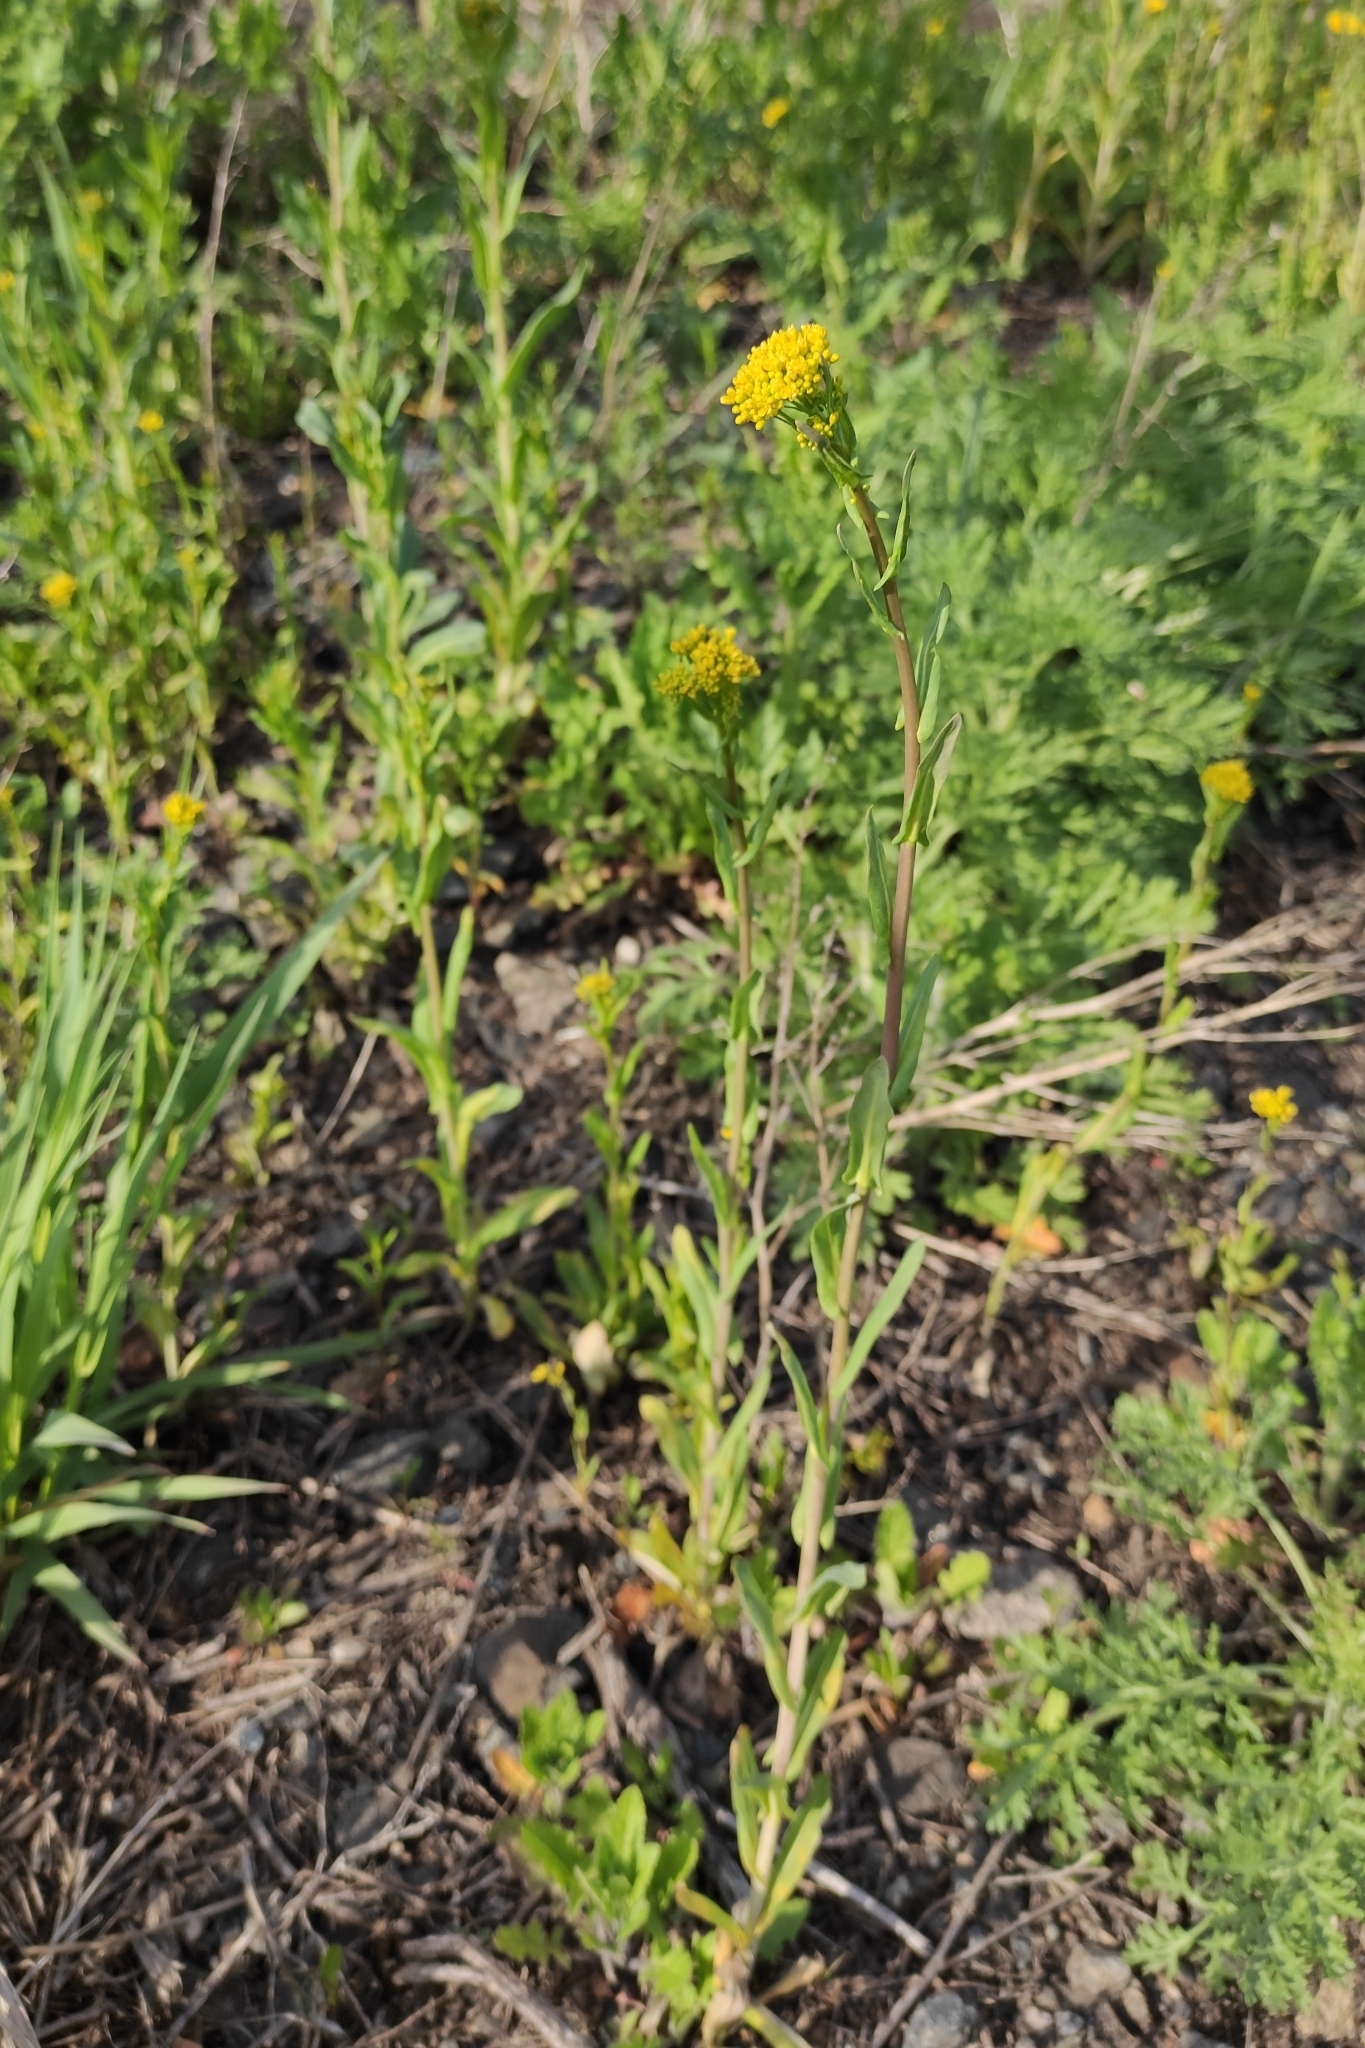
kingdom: Plantae
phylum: Tracheophyta
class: Magnoliopsida
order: Brassicales
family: Brassicaceae
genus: Isatis
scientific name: Isatis tinctoria
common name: Woad
